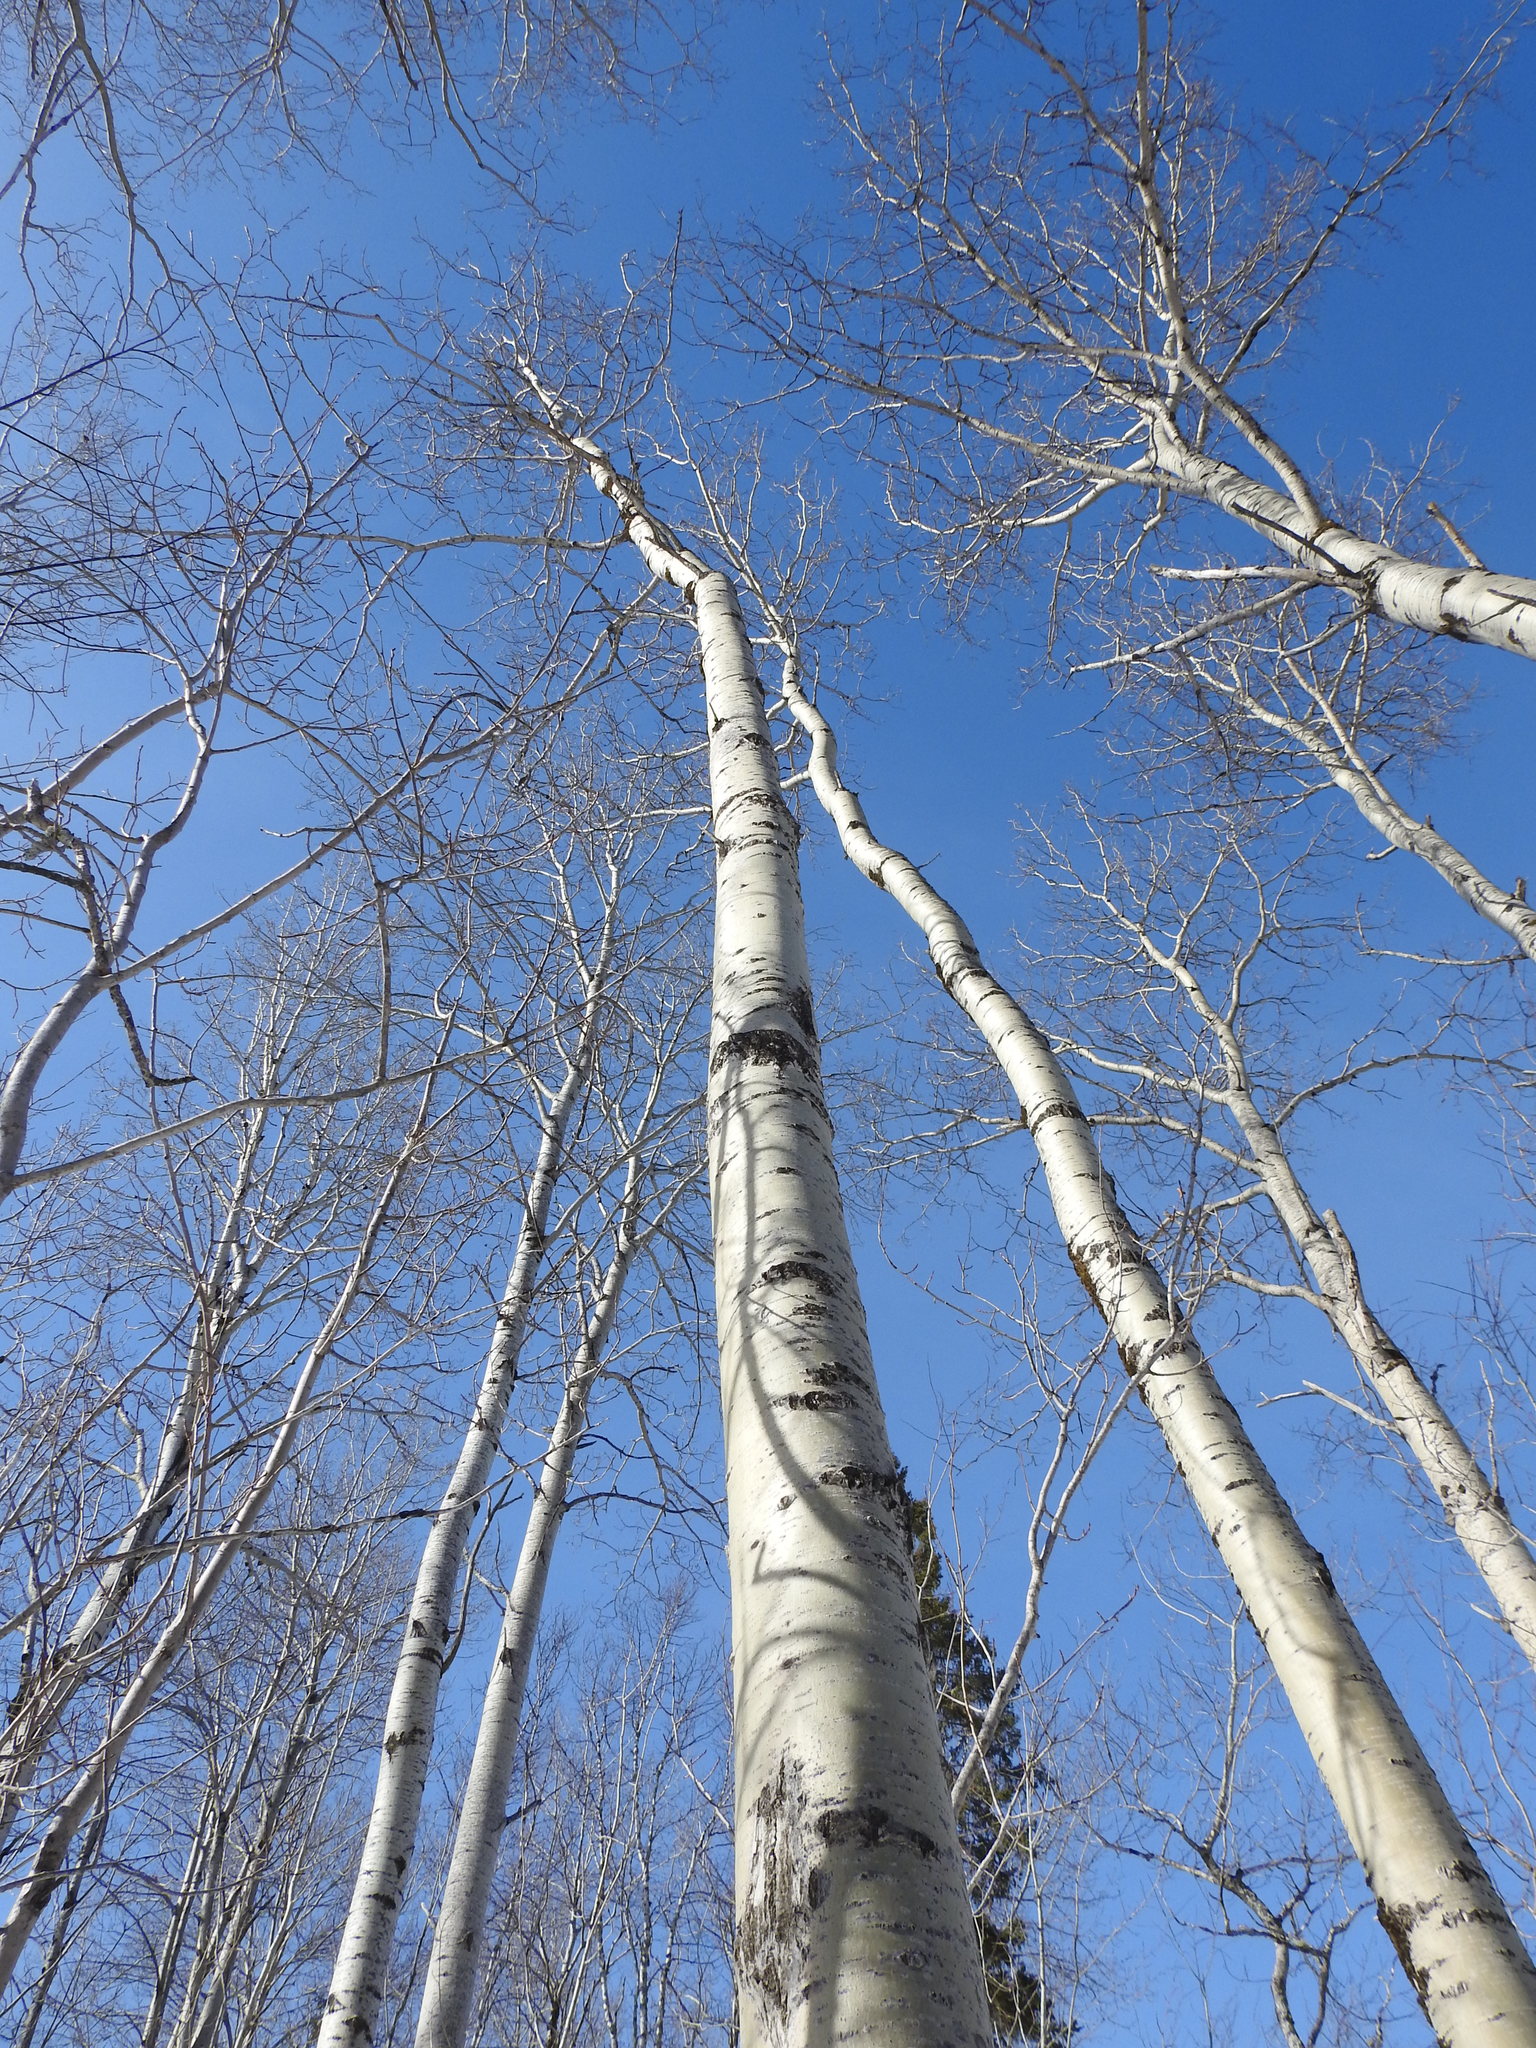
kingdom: Plantae
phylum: Tracheophyta
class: Magnoliopsida
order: Malpighiales
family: Salicaceae
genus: Populus
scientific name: Populus tremuloides
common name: Quaking aspen
